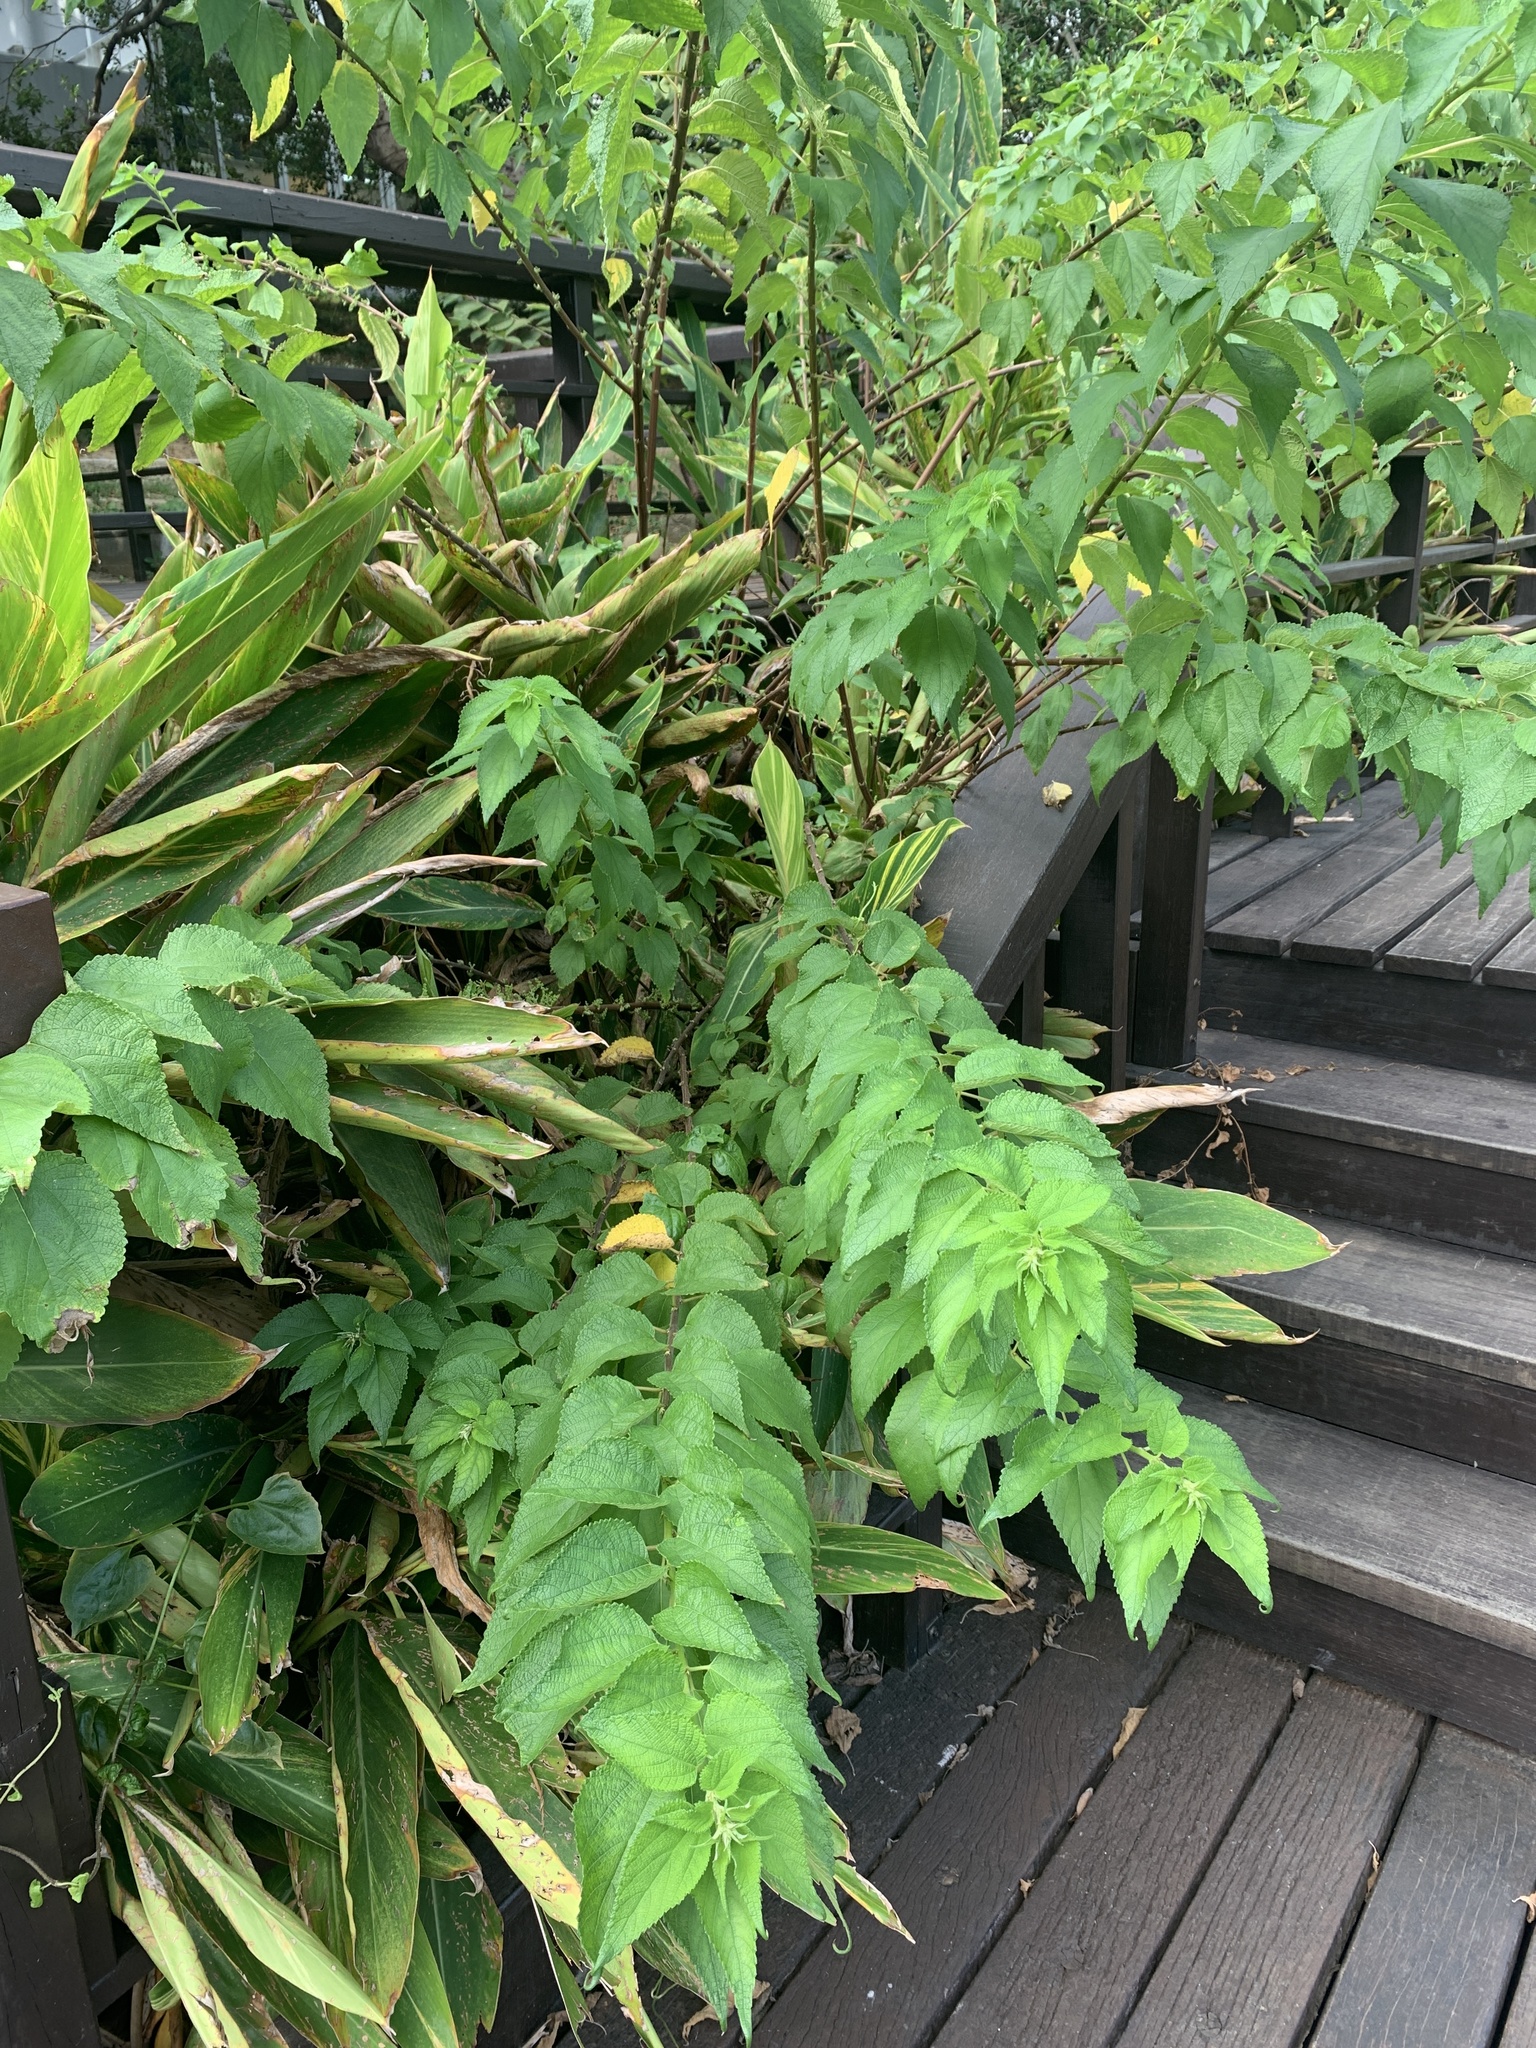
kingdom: Plantae
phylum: Tracheophyta
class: Magnoliopsida
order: Rosales
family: Urticaceae
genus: Boehmeria
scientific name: Boehmeria nivea
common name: Ramie chinese grass
